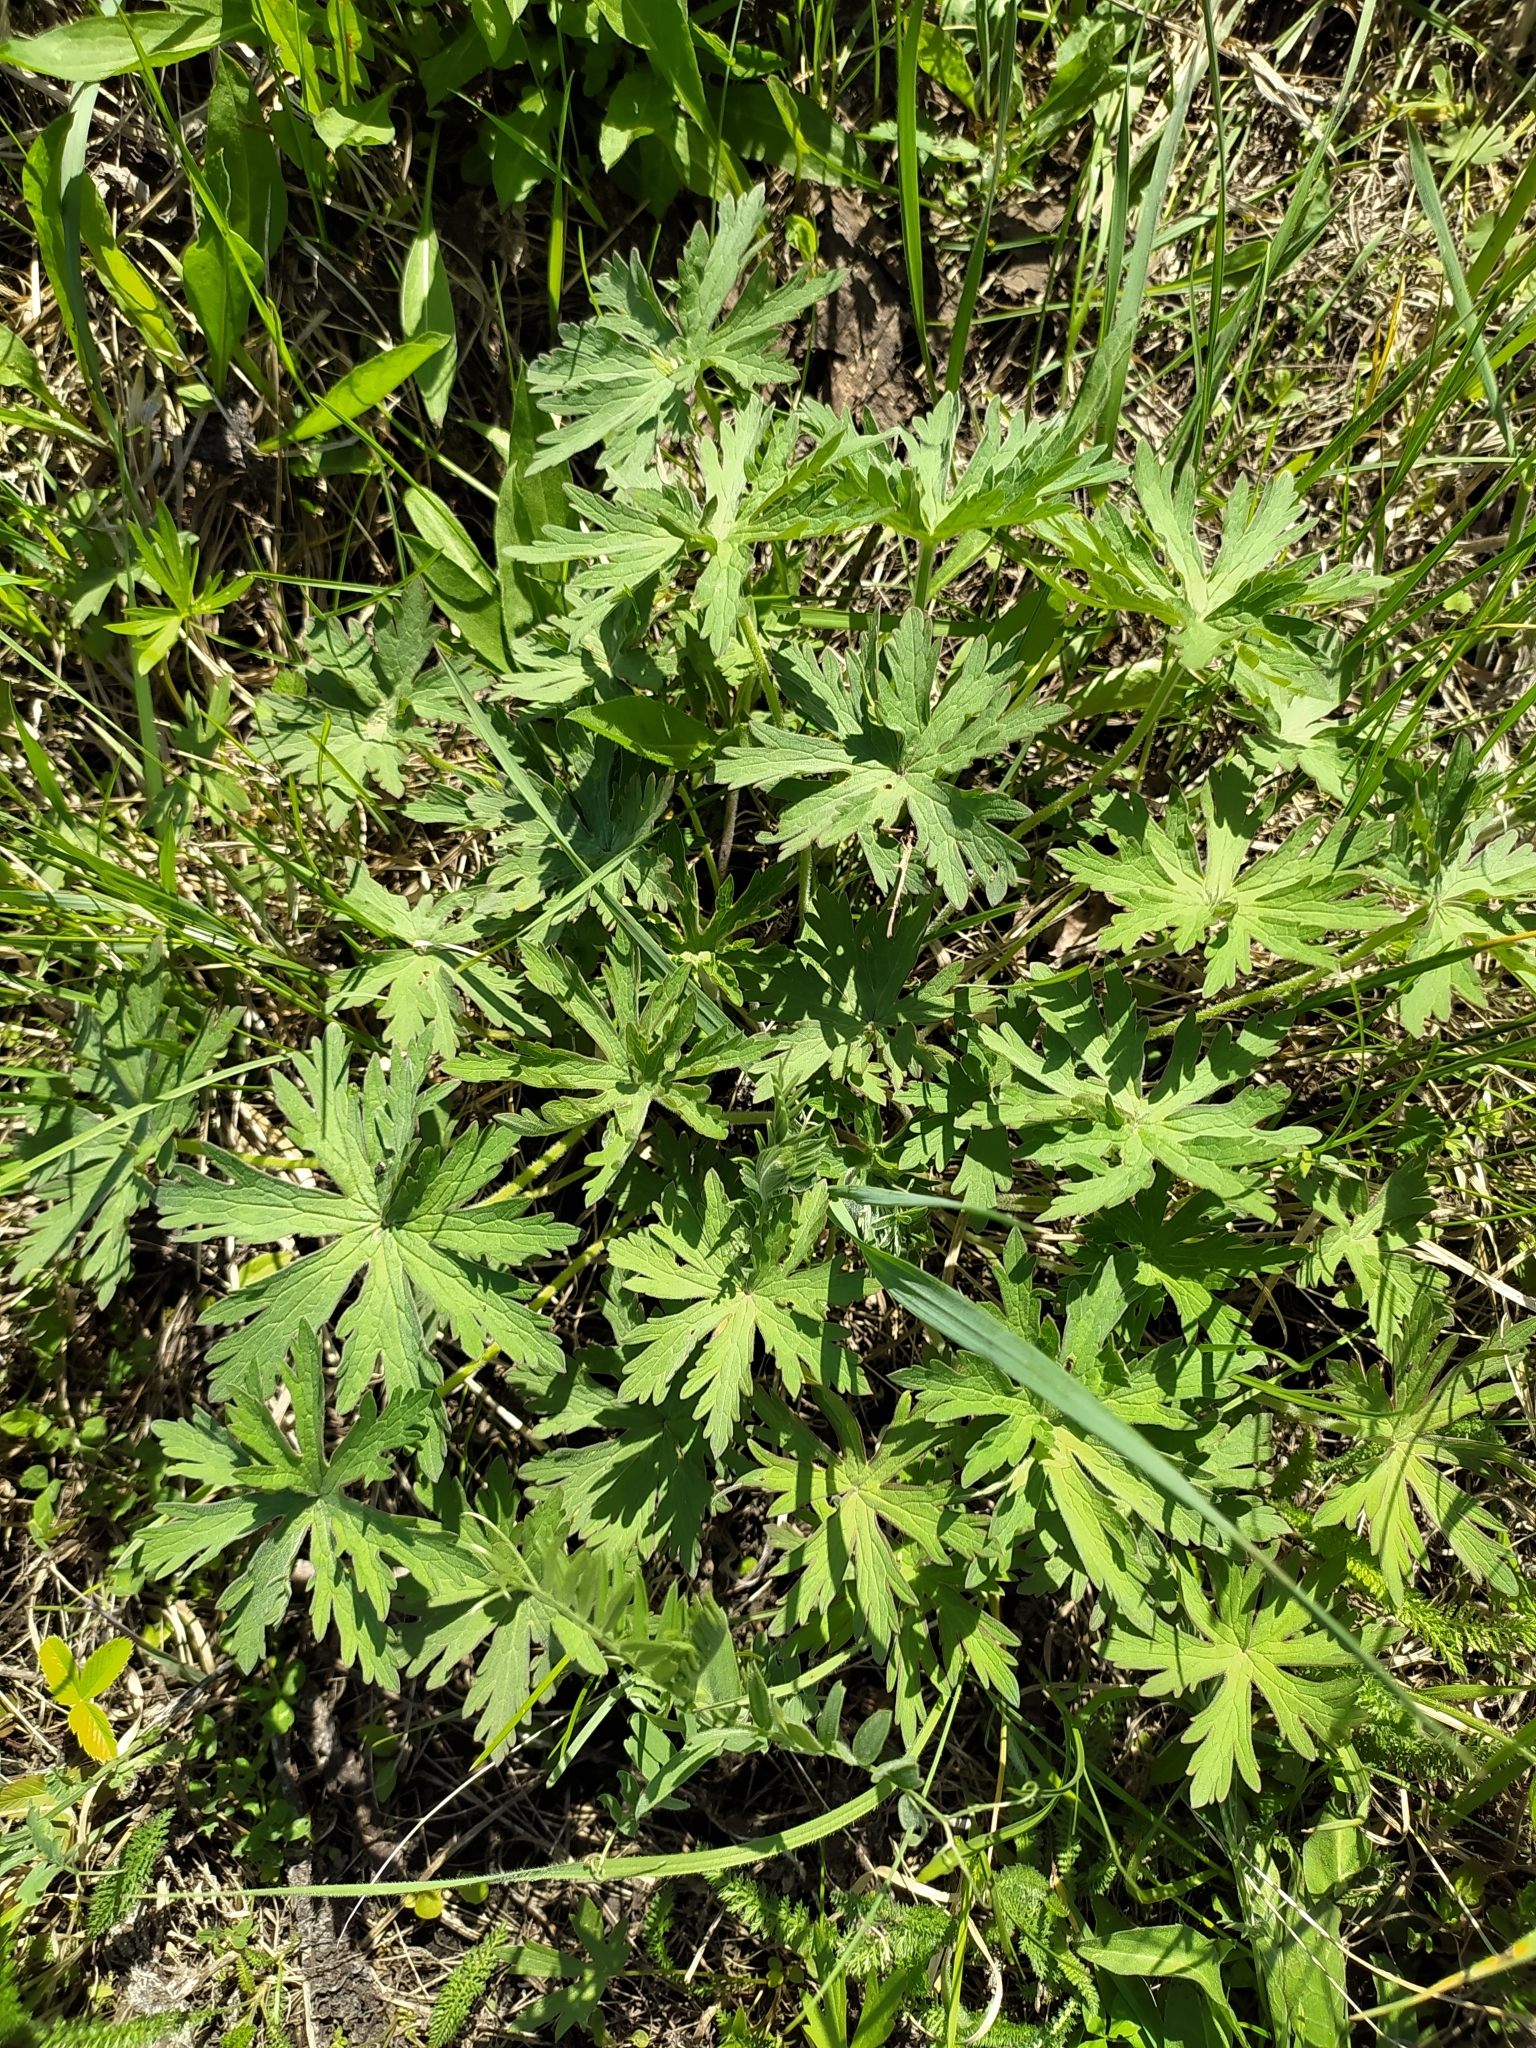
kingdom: Plantae
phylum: Tracheophyta
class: Magnoliopsida
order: Geraniales
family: Geraniaceae
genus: Geranium
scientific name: Geranium pratense
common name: Meadow crane's-bill
